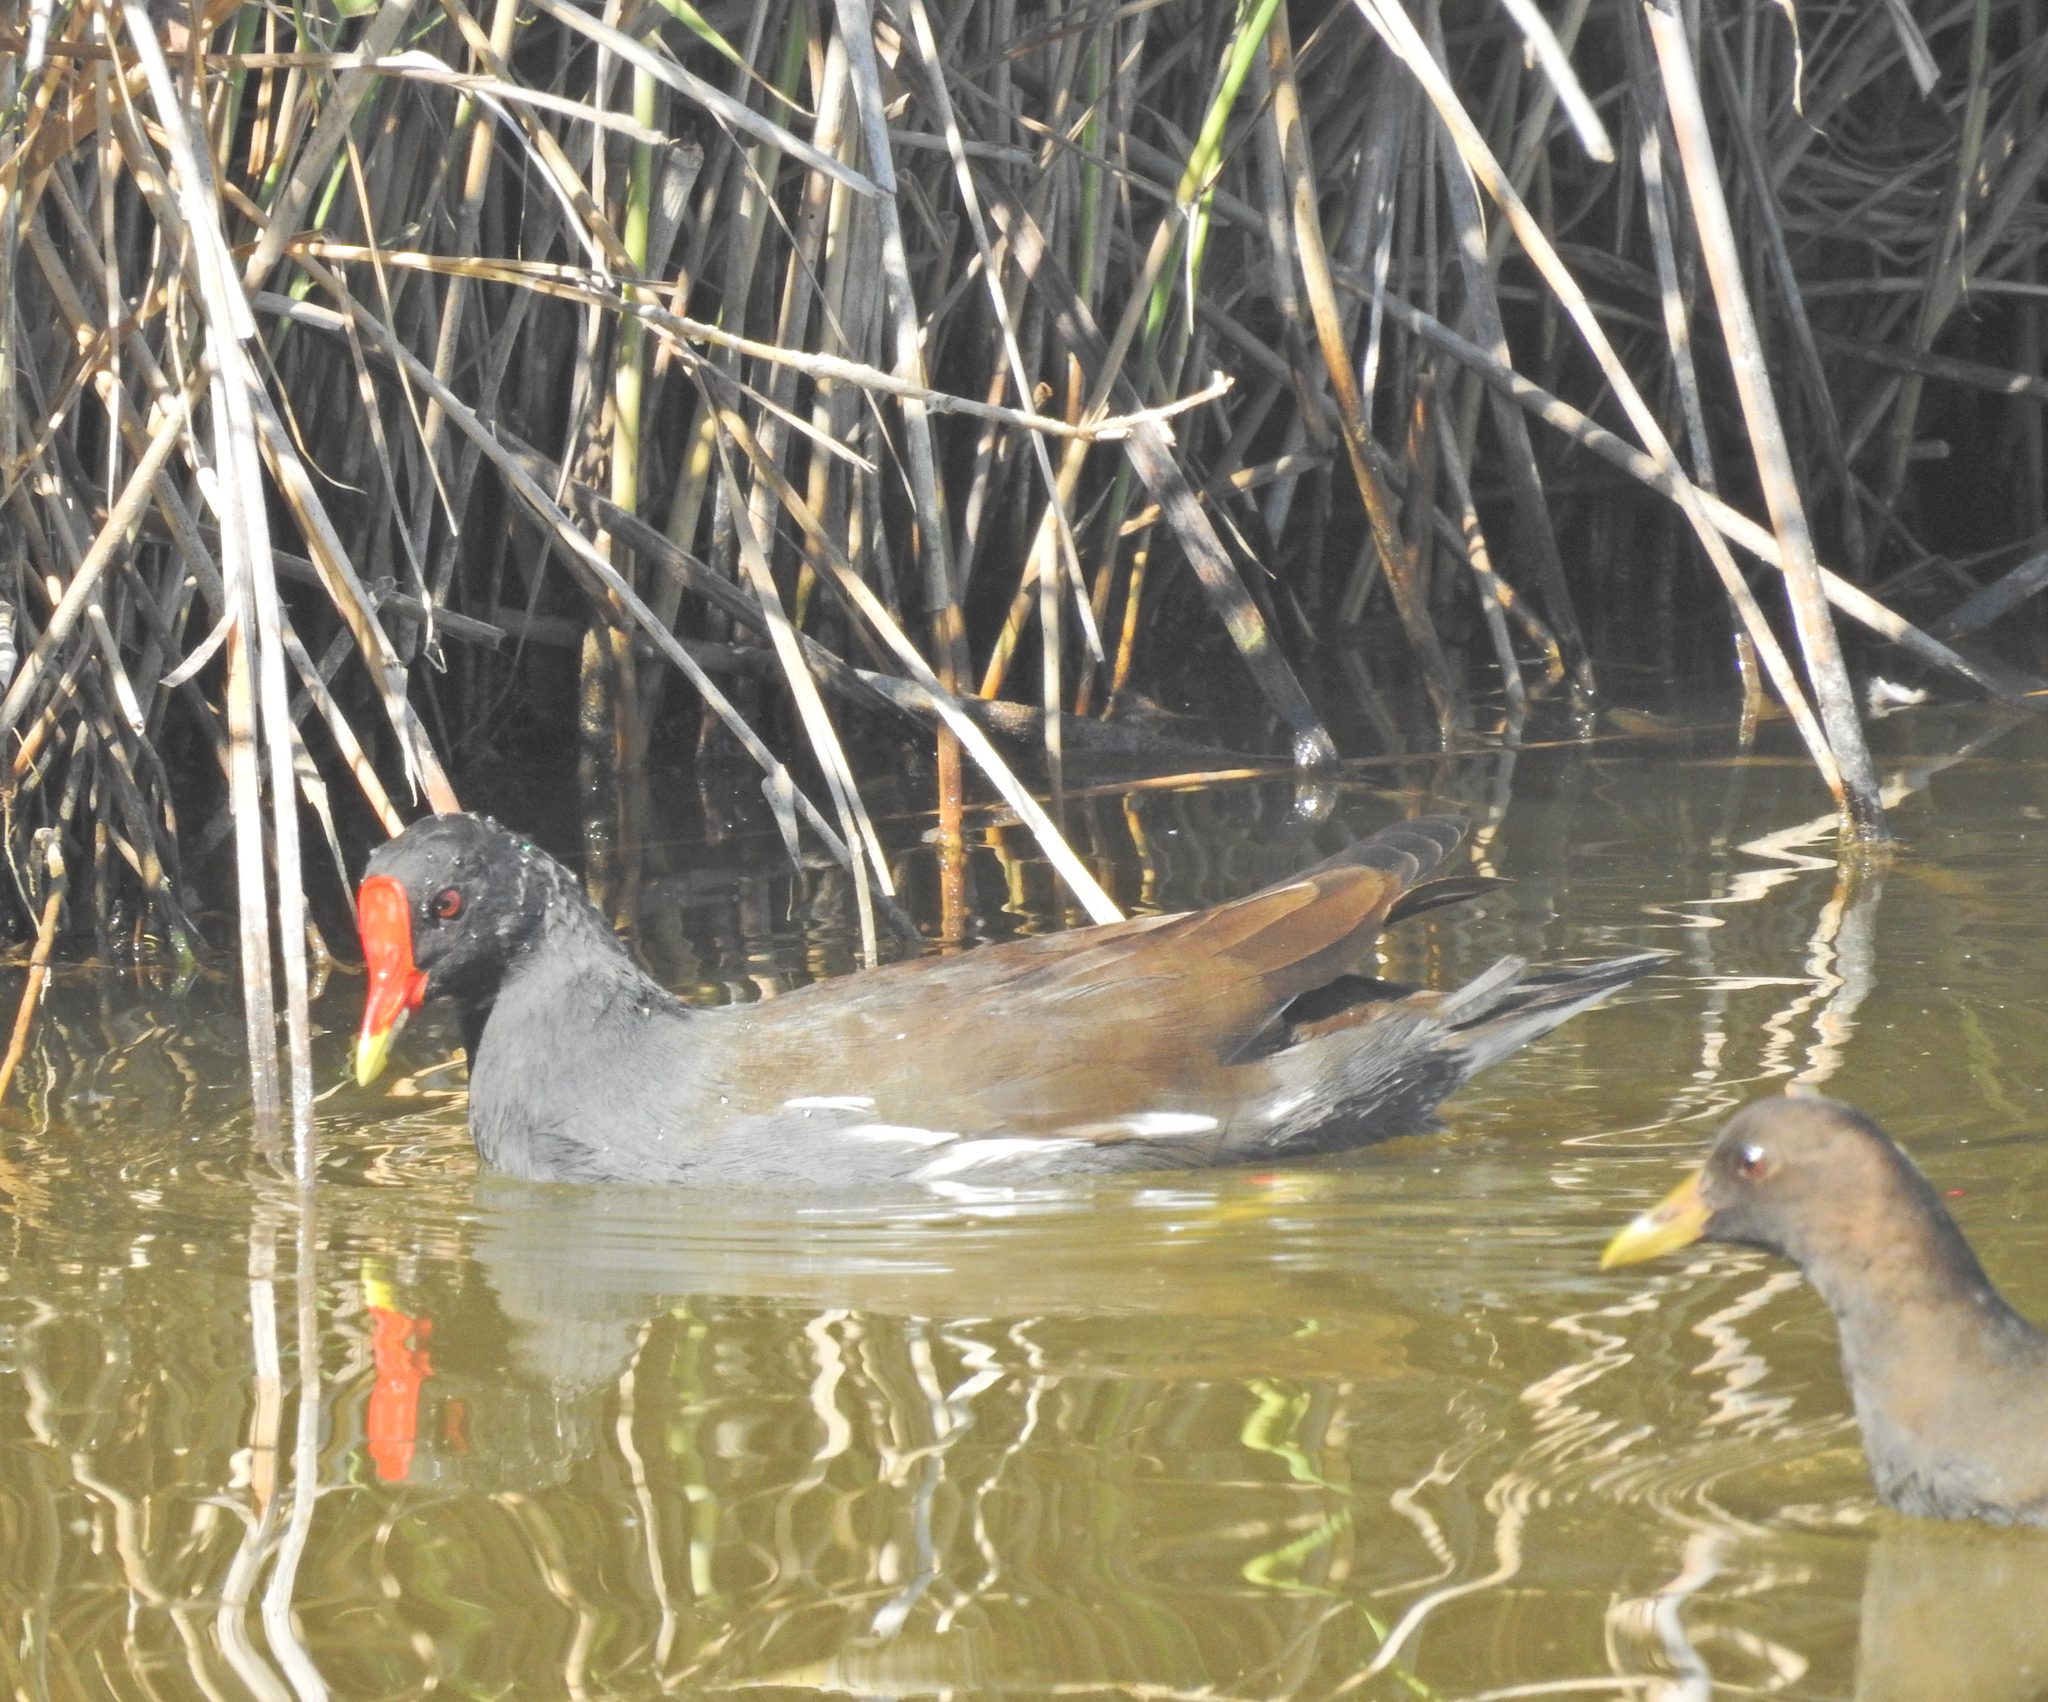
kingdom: Animalia
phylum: Chordata
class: Aves
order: Gruiformes
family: Rallidae
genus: Gallinula
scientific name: Gallinula chloropus
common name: Common moorhen
